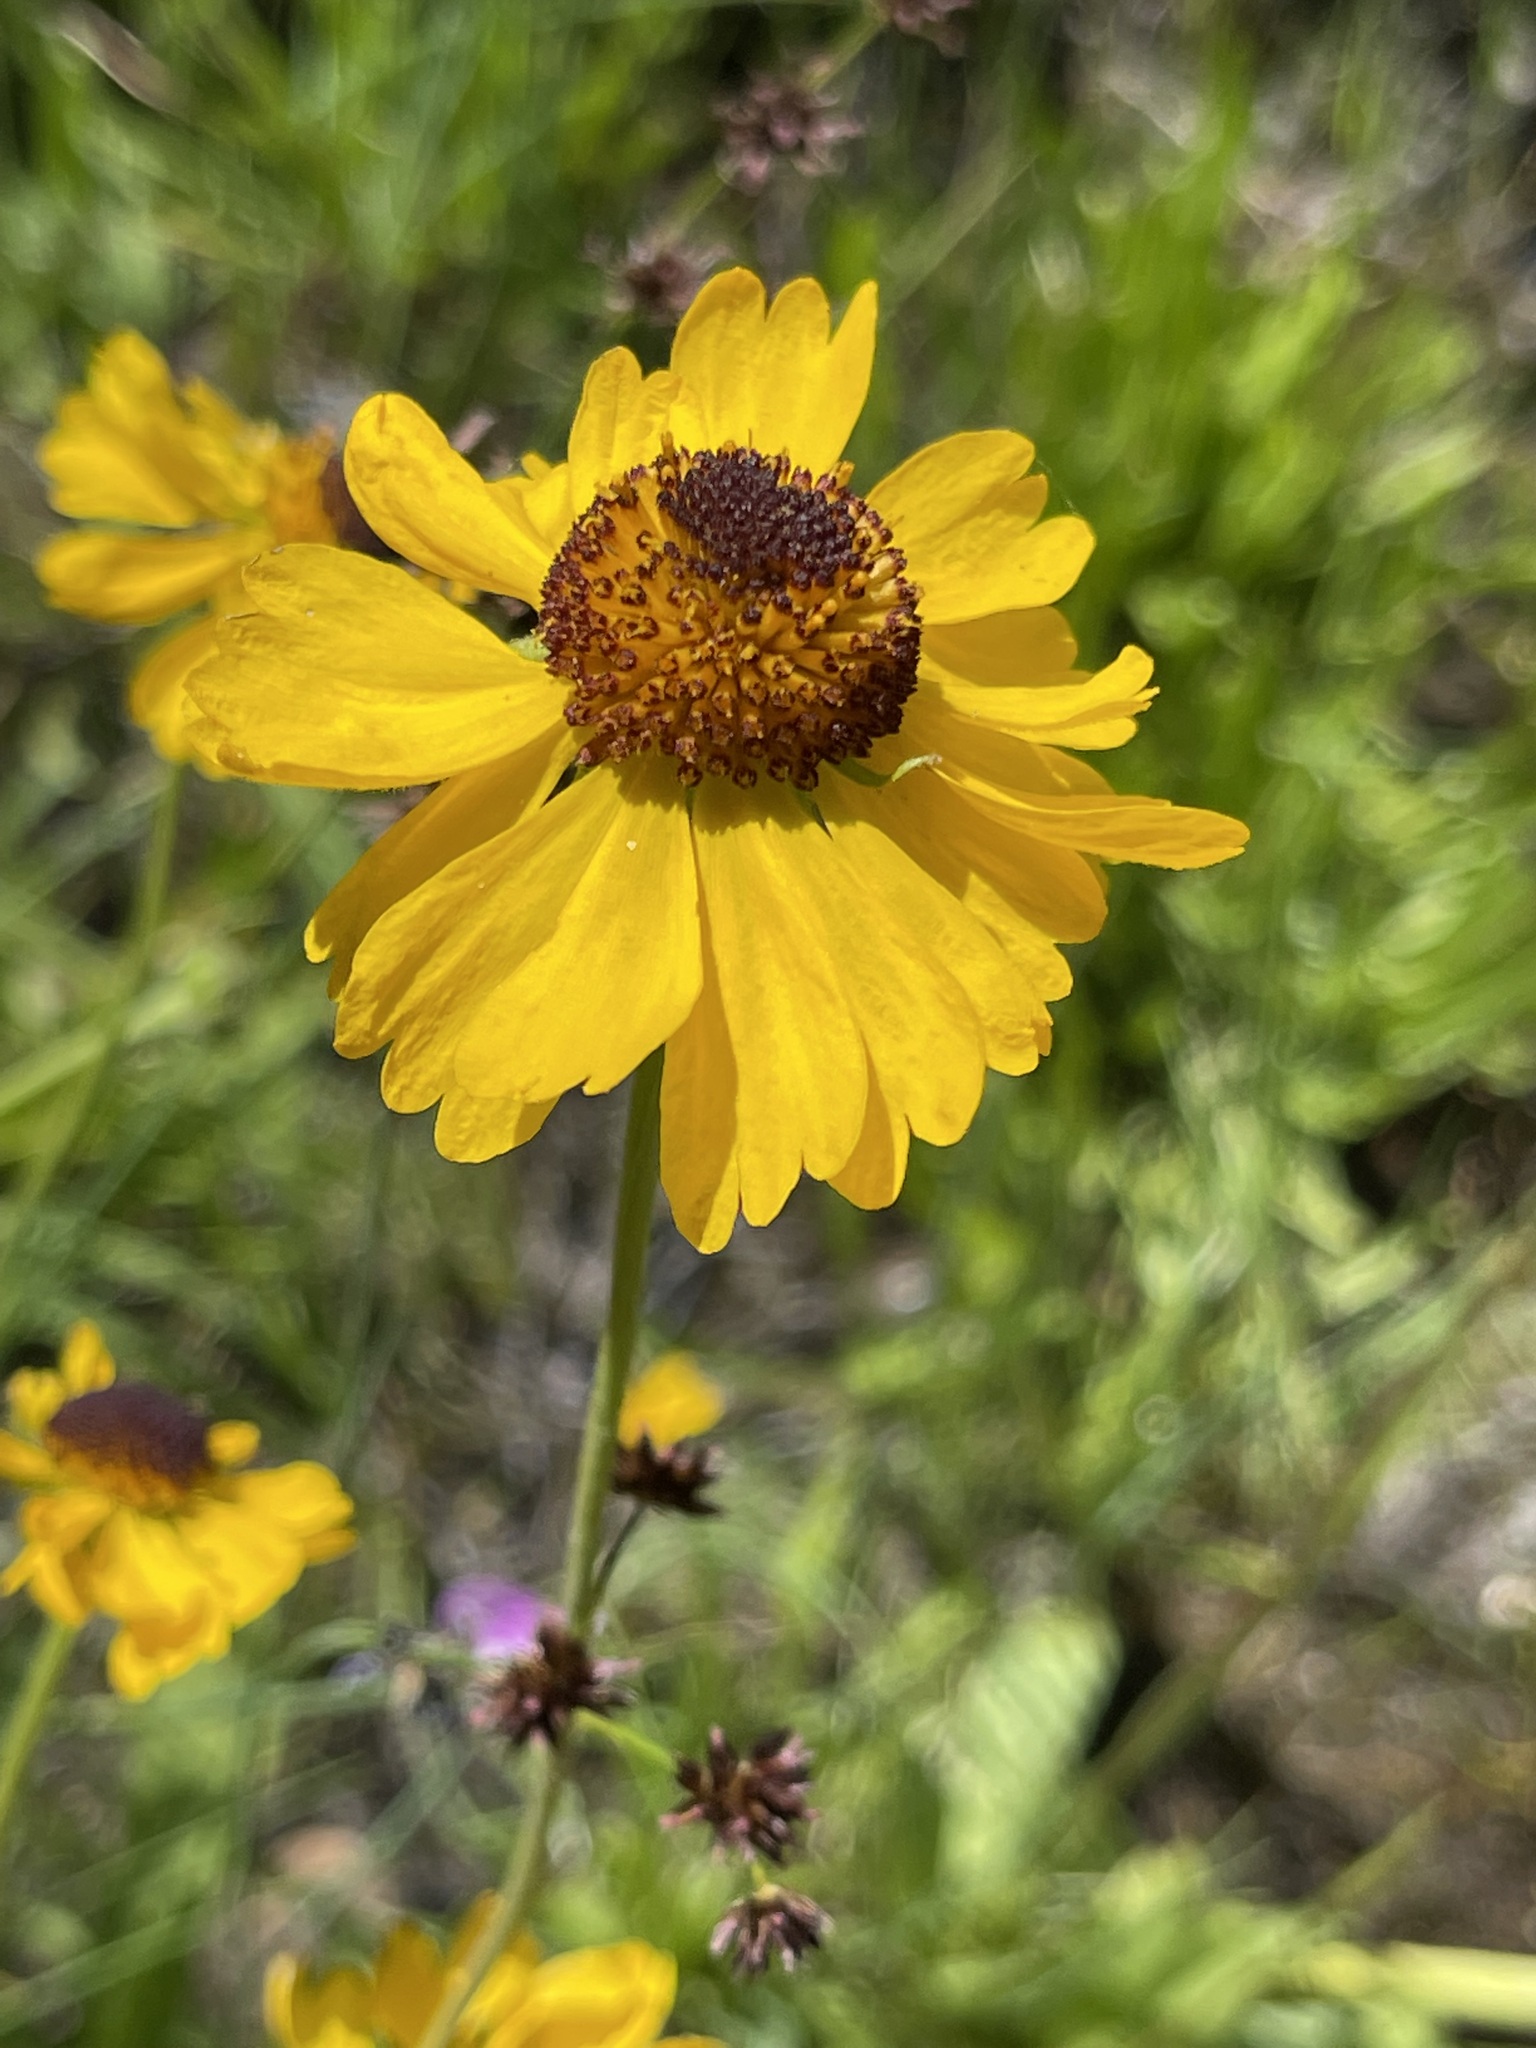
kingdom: Plantae
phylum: Tracheophyta
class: Magnoliopsida
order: Asterales
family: Asteraceae
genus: Helenium
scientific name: Helenium bigelovii
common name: Bigelow's sneezeweed
